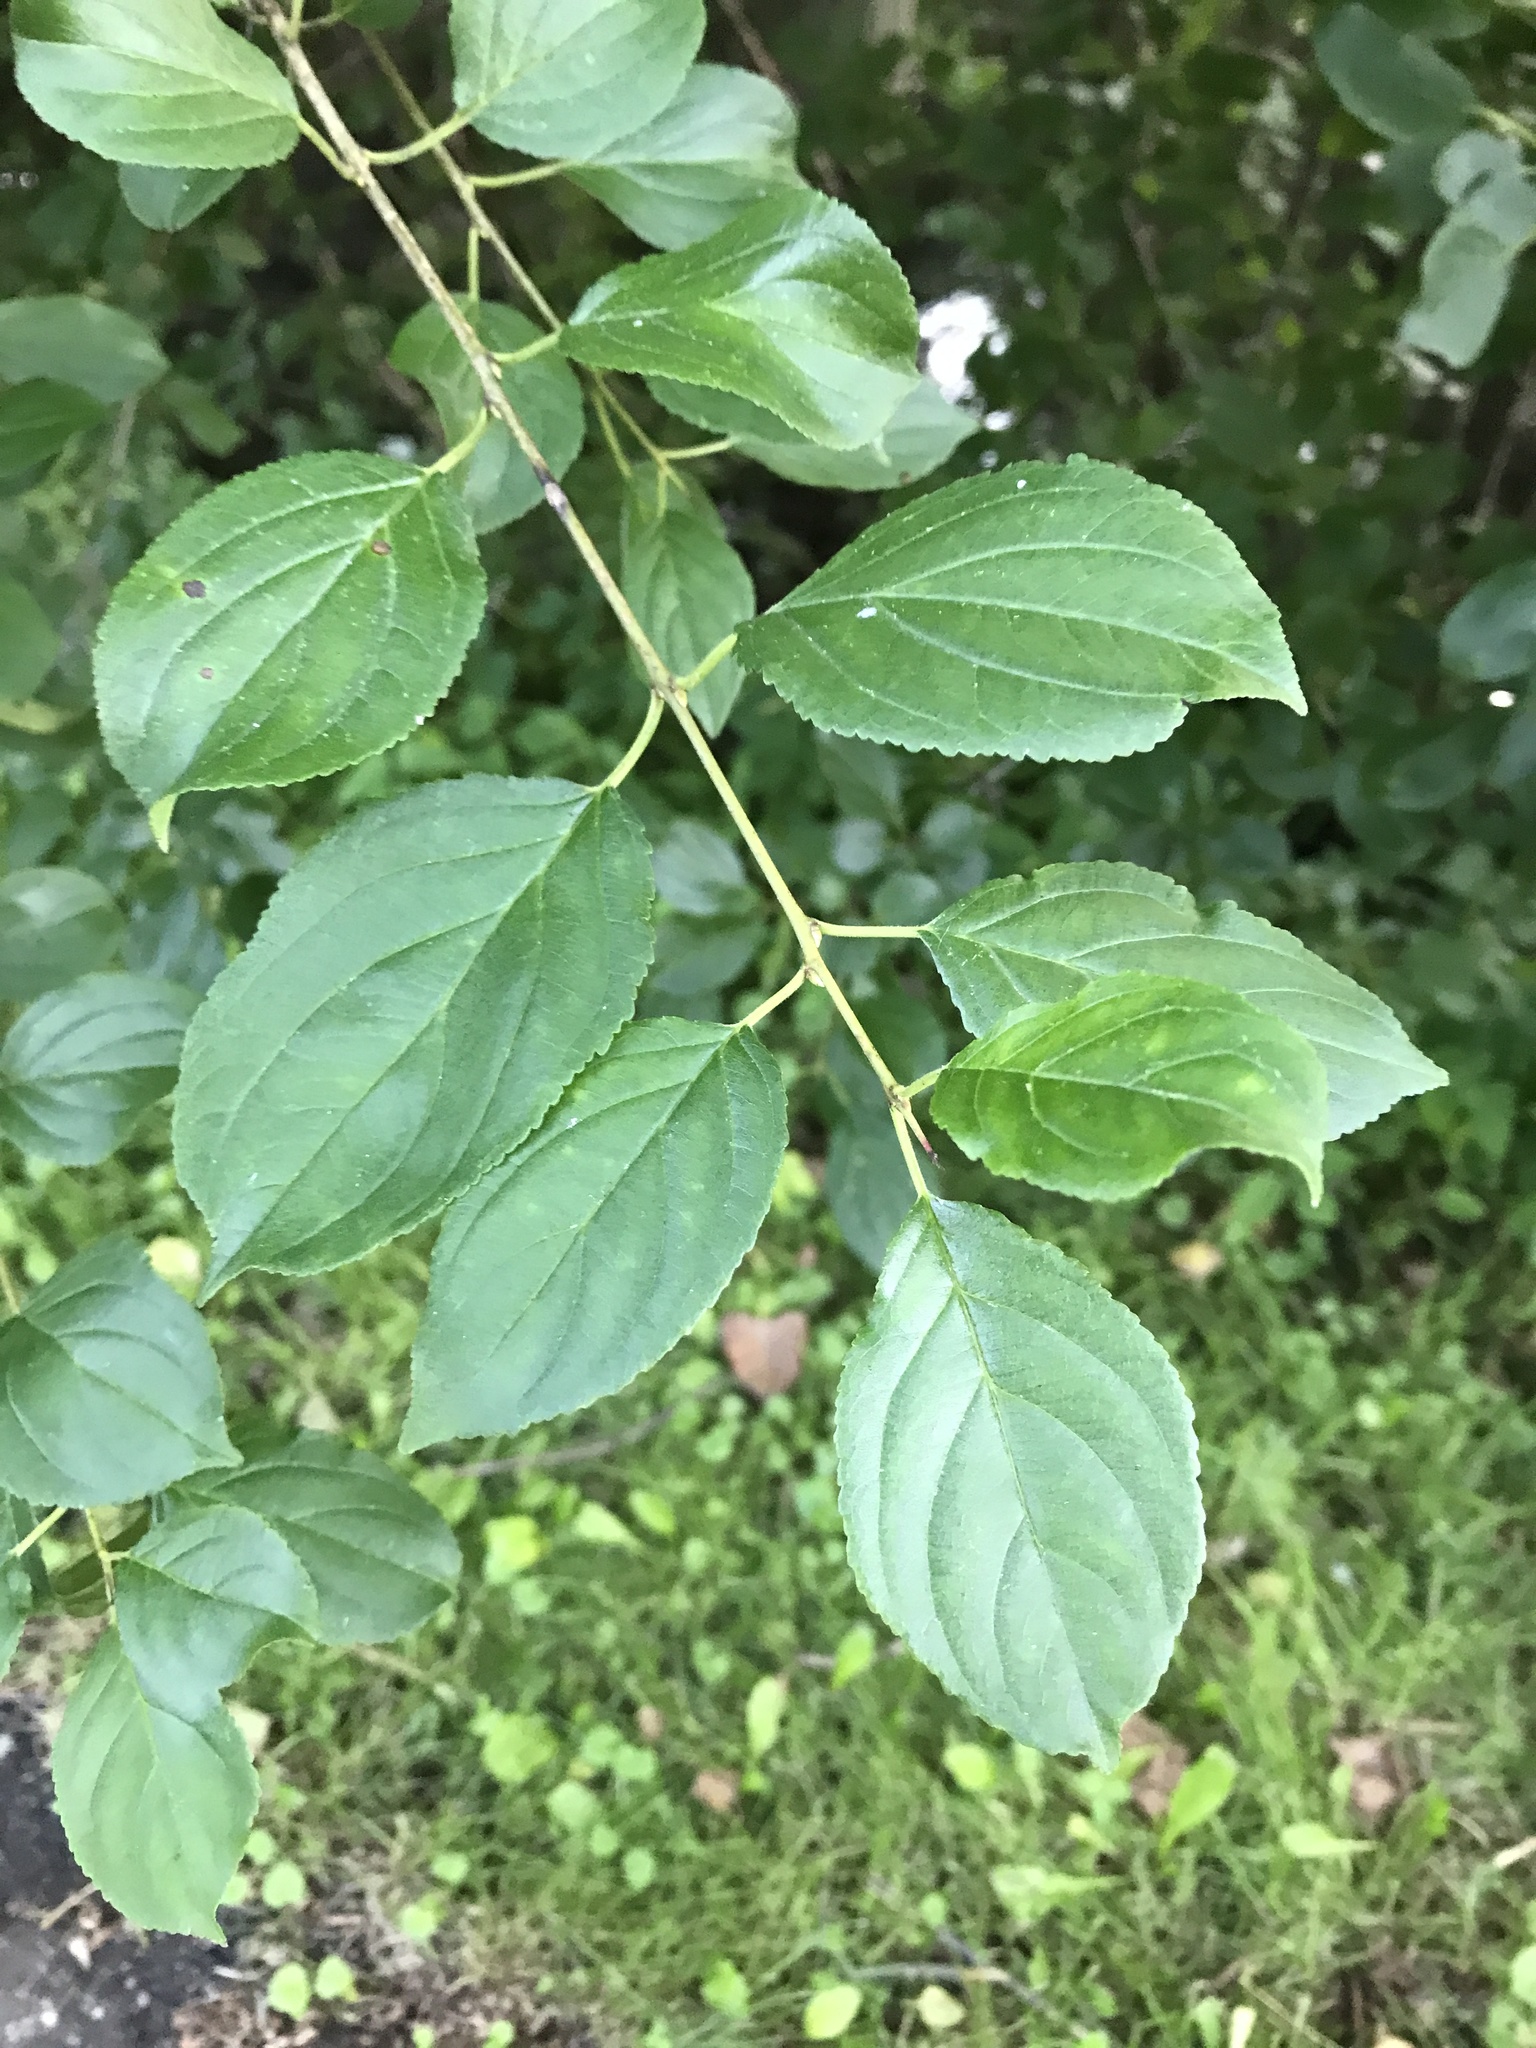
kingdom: Plantae
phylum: Tracheophyta
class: Magnoliopsida
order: Rosales
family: Rhamnaceae
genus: Rhamnus
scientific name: Rhamnus cathartica
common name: Common buckthorn
